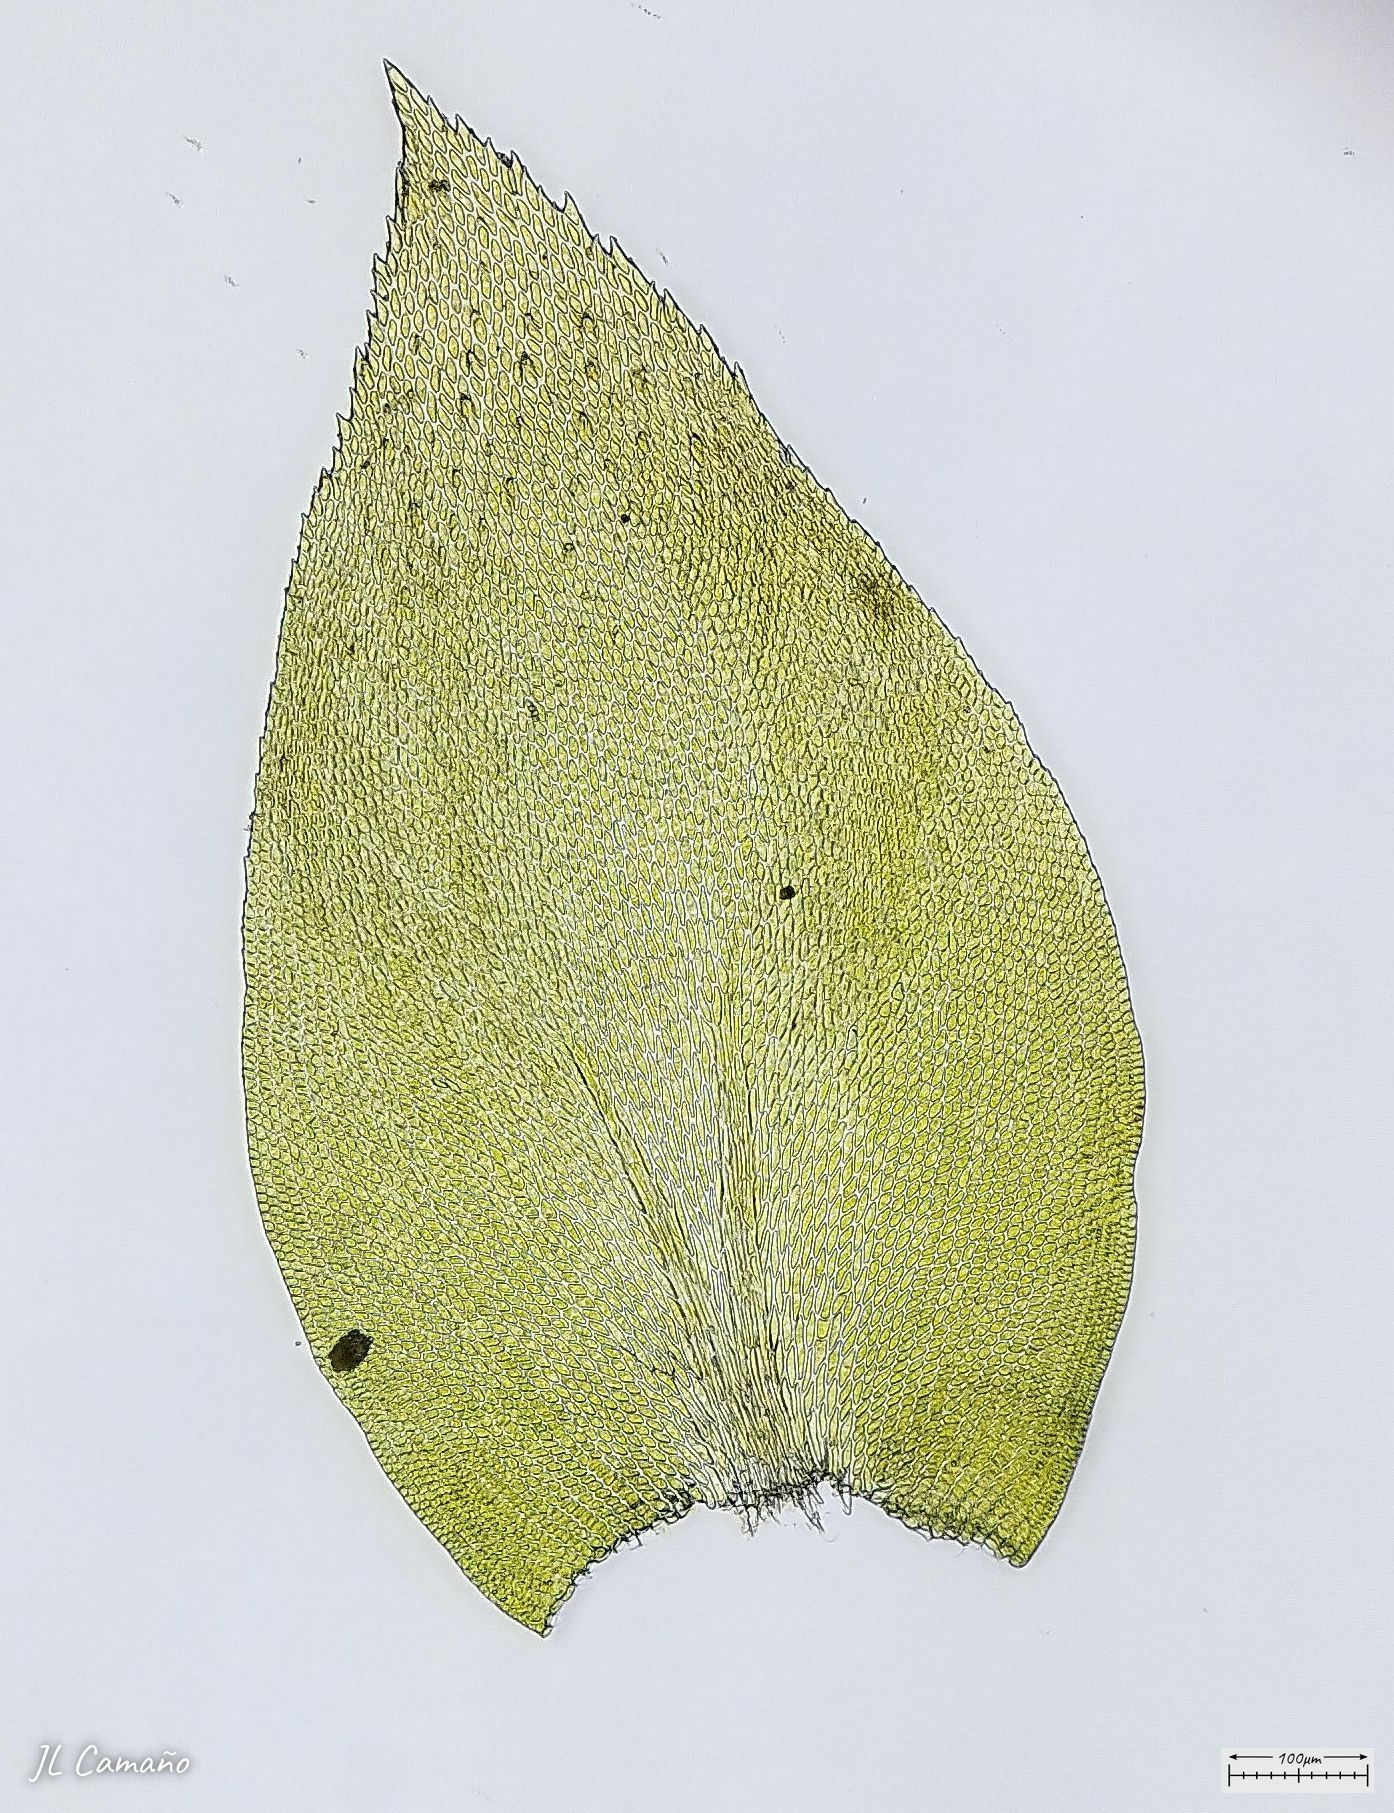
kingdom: Plantae
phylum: Bryophyta
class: Bryopsida
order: Hypnales
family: Lembophyllaceae
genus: Nogopterium
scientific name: Nogopterium gracile
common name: Bird's-foot wing-moss
